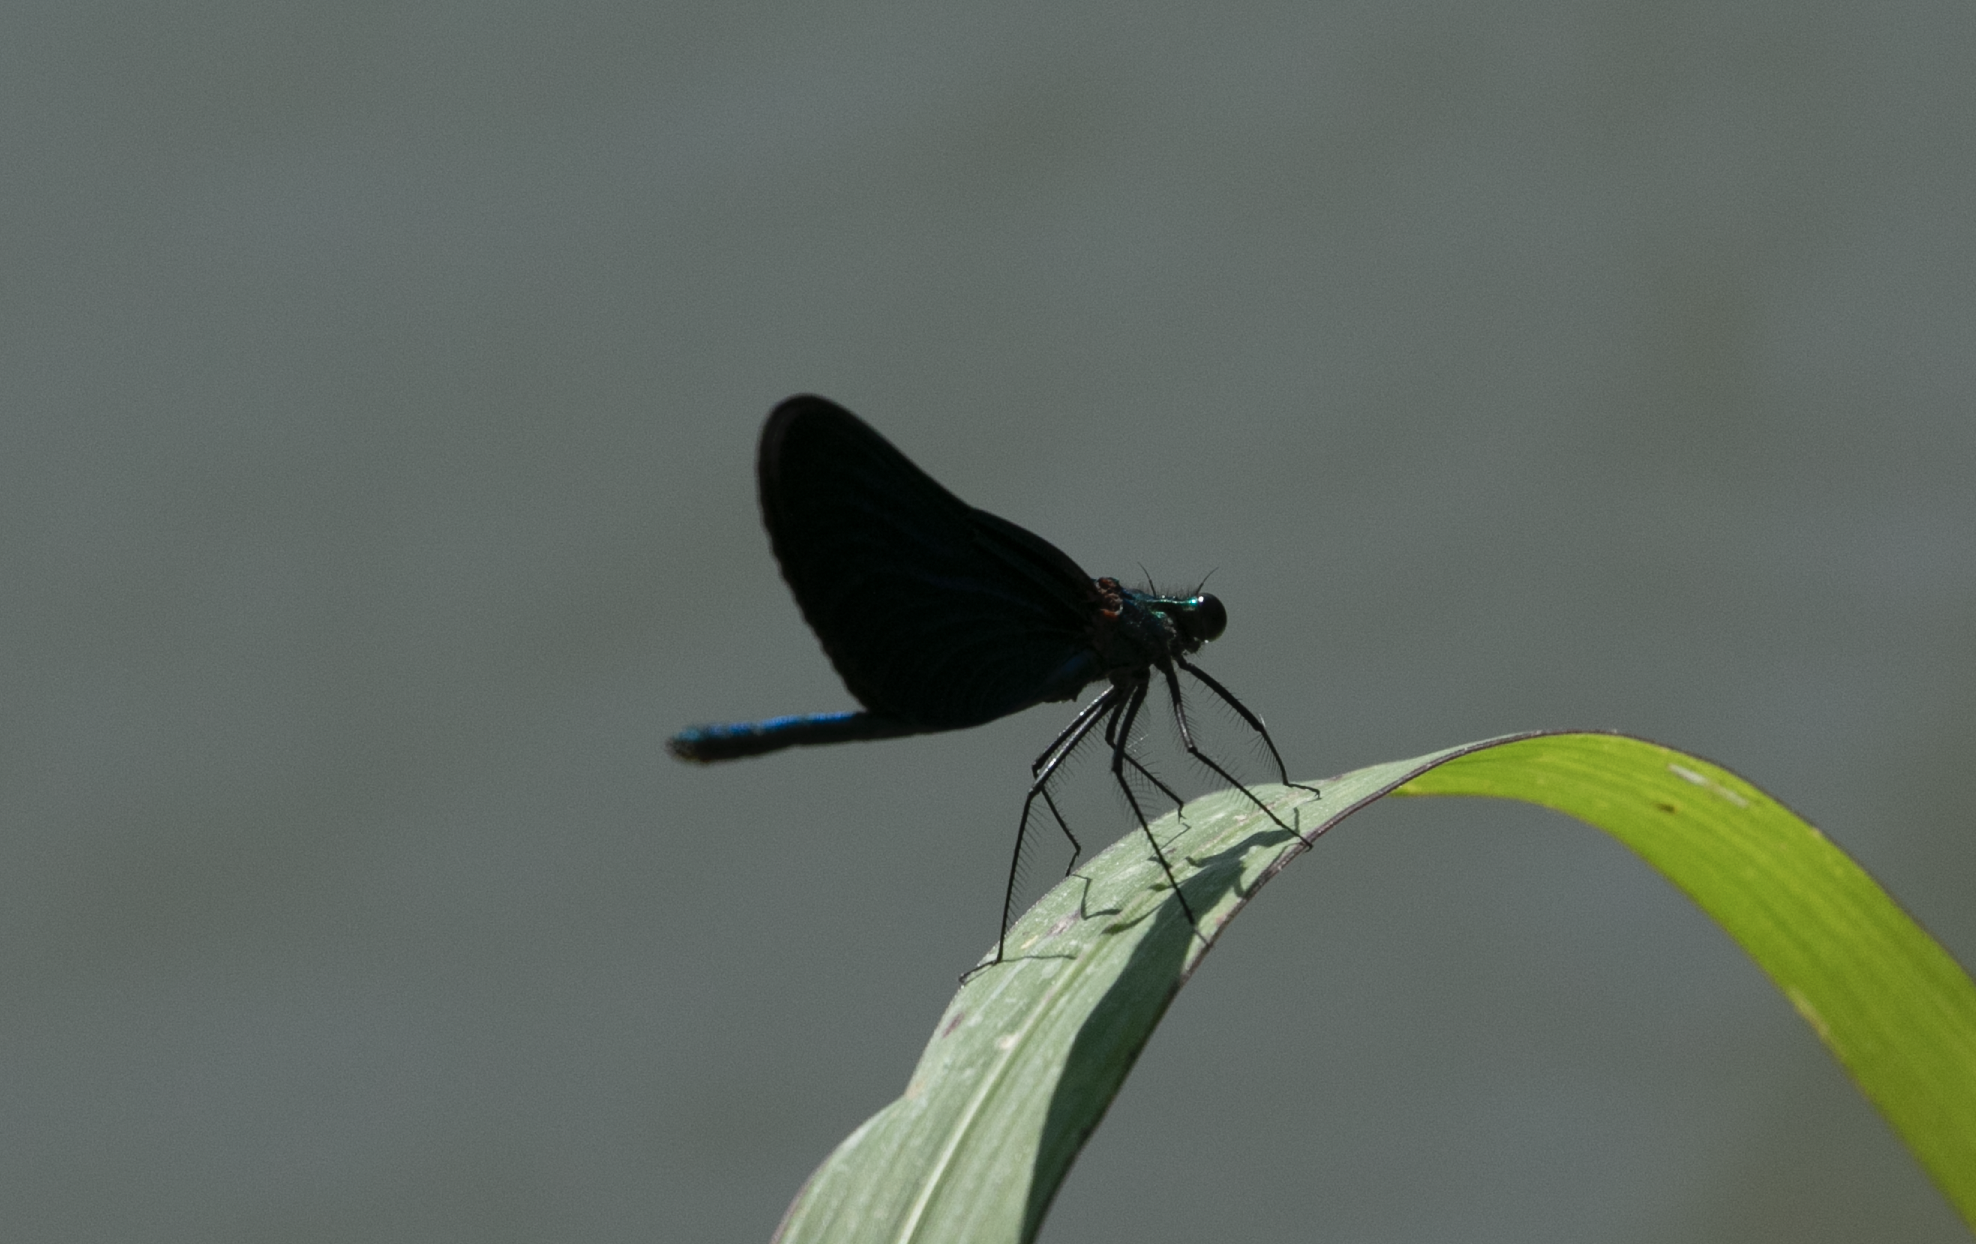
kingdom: Animalia
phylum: Arthropoda
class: Insecta
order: Odonata
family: Calopterygidae
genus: Calopteryx
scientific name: Calopteryx virgo
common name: Beautiful demoiselle
